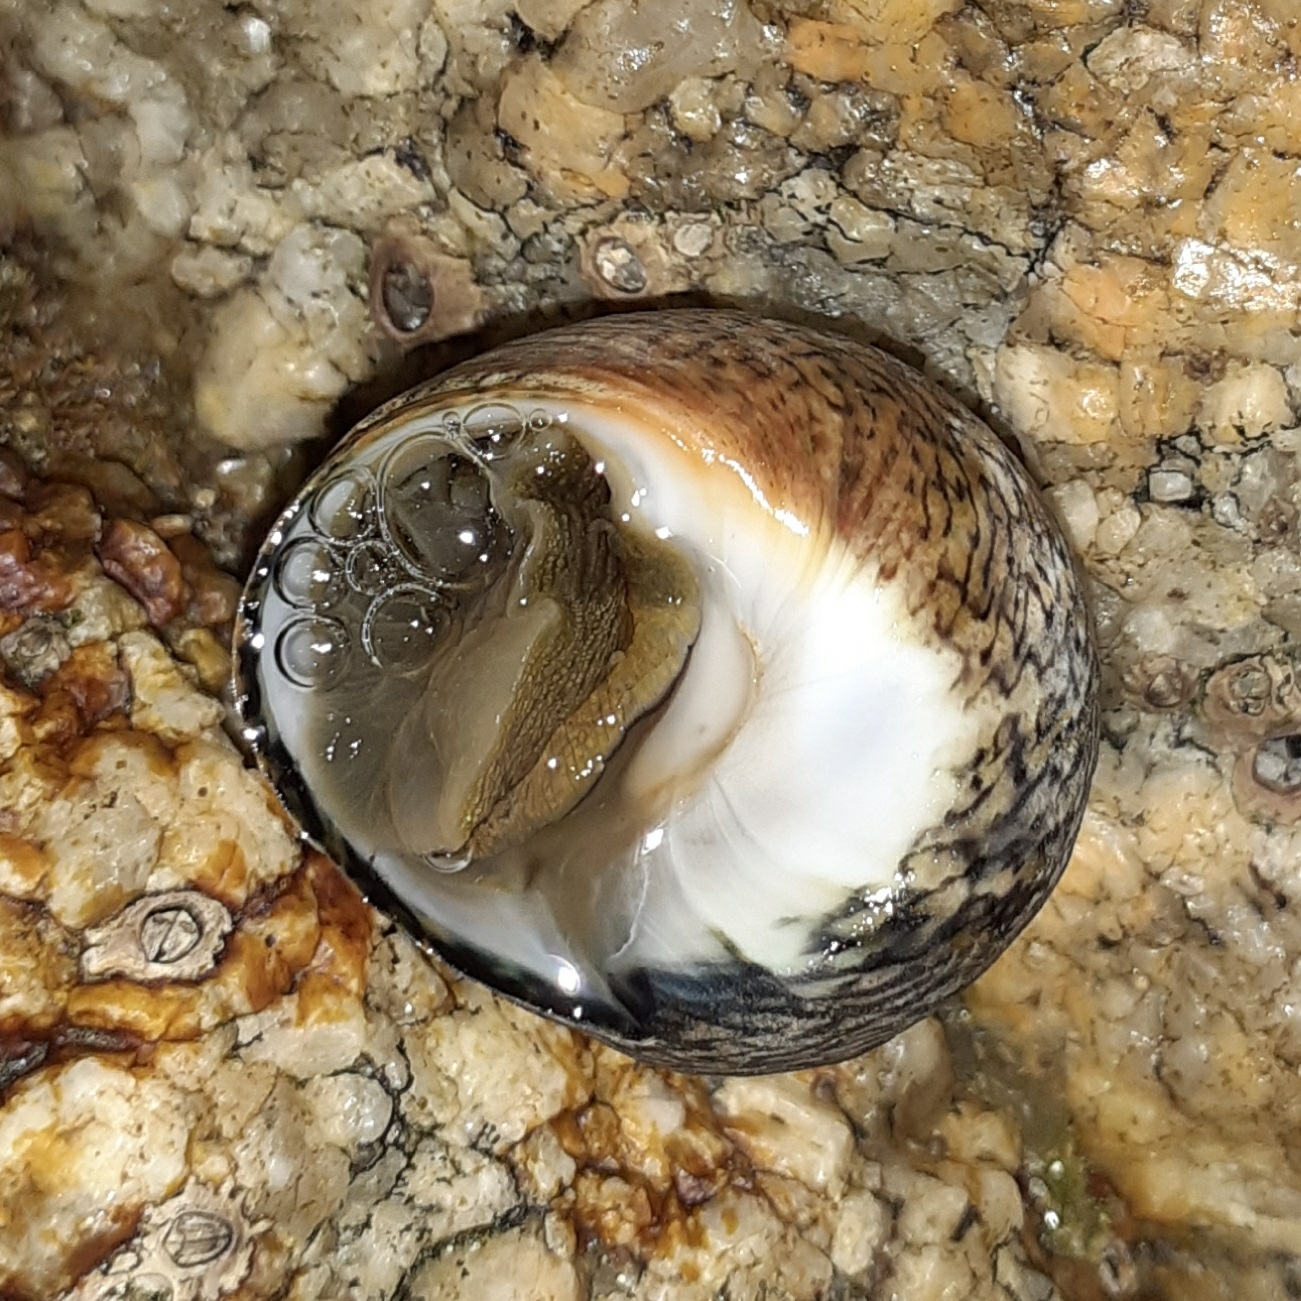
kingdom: Animalia
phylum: Mollusca
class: Gastropoda
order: Trochida
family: Trochidae
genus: Phorcus
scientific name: Phorcus lineatus
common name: Toothed top shell
